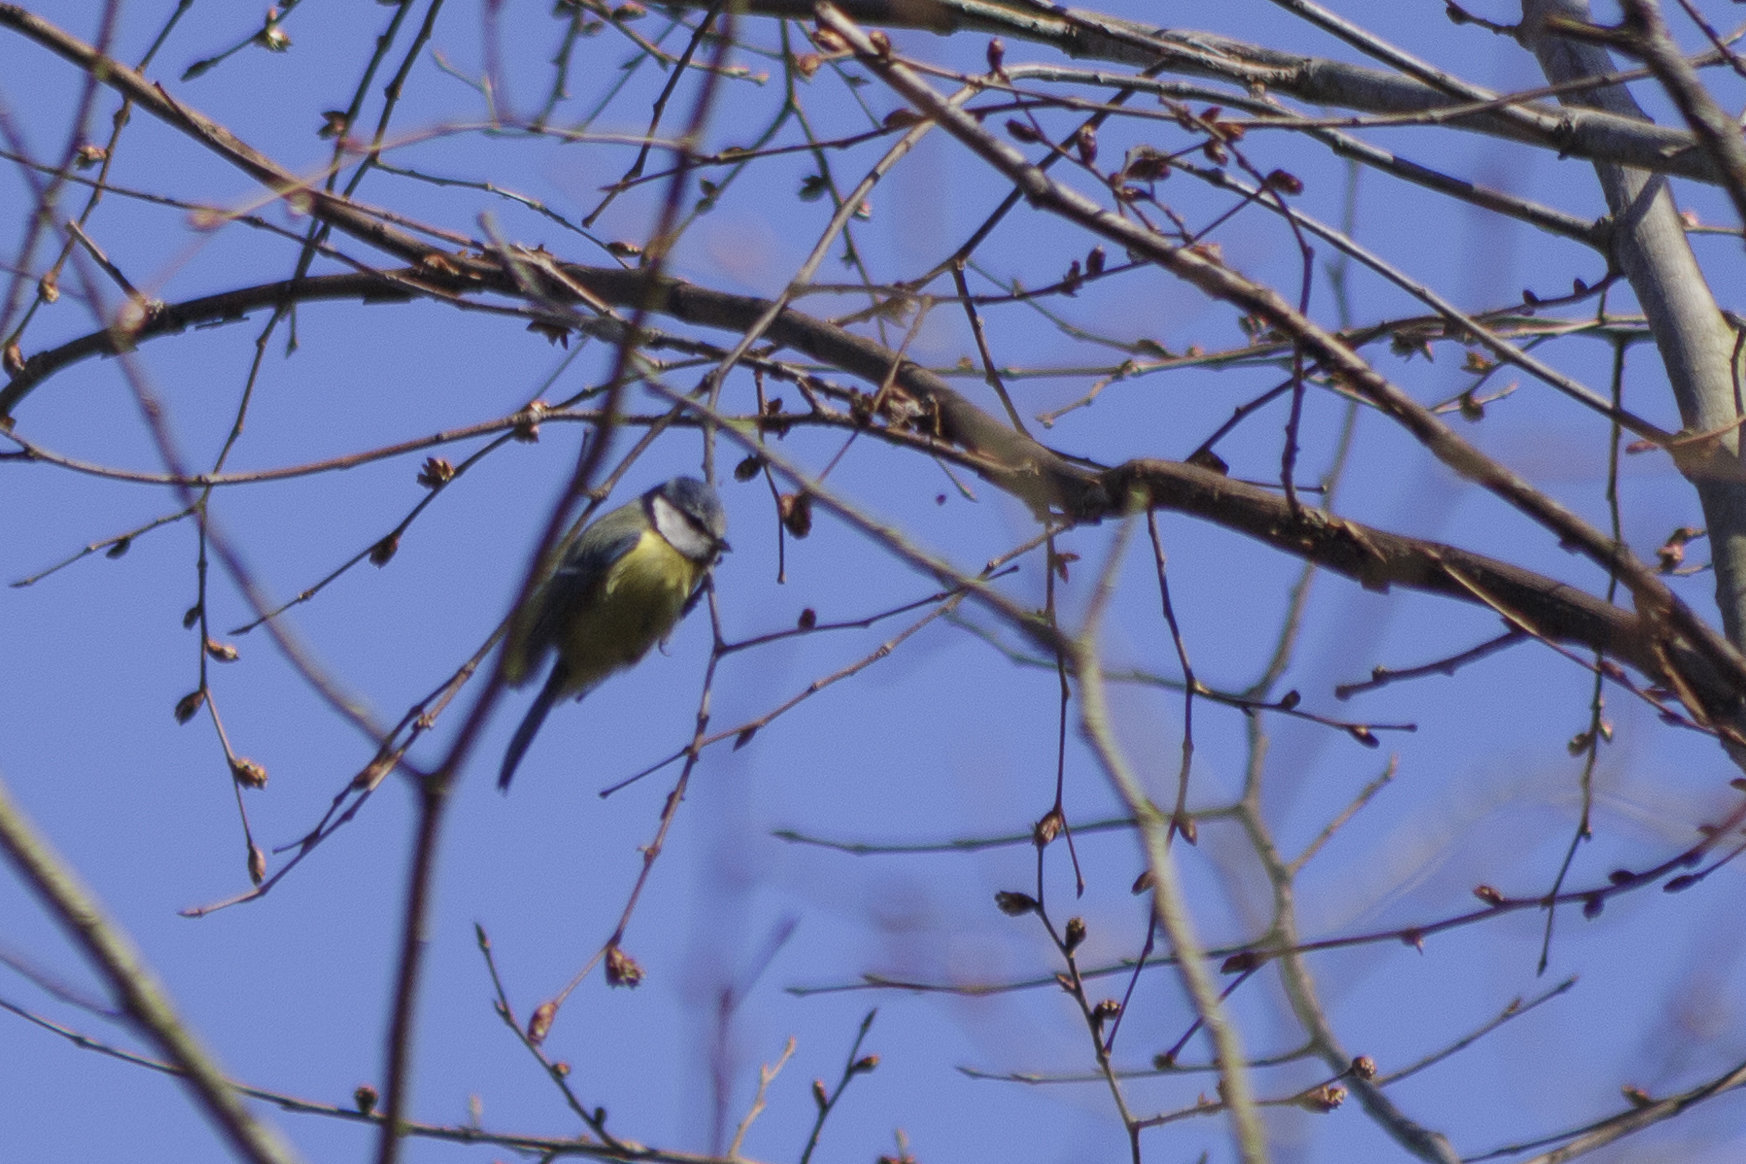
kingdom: Animalia
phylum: Chordata
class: Aves
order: Passeriformes
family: Paridae
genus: Cyanistes
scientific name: Cyanistes caeruleus
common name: Eurasian blue tit
